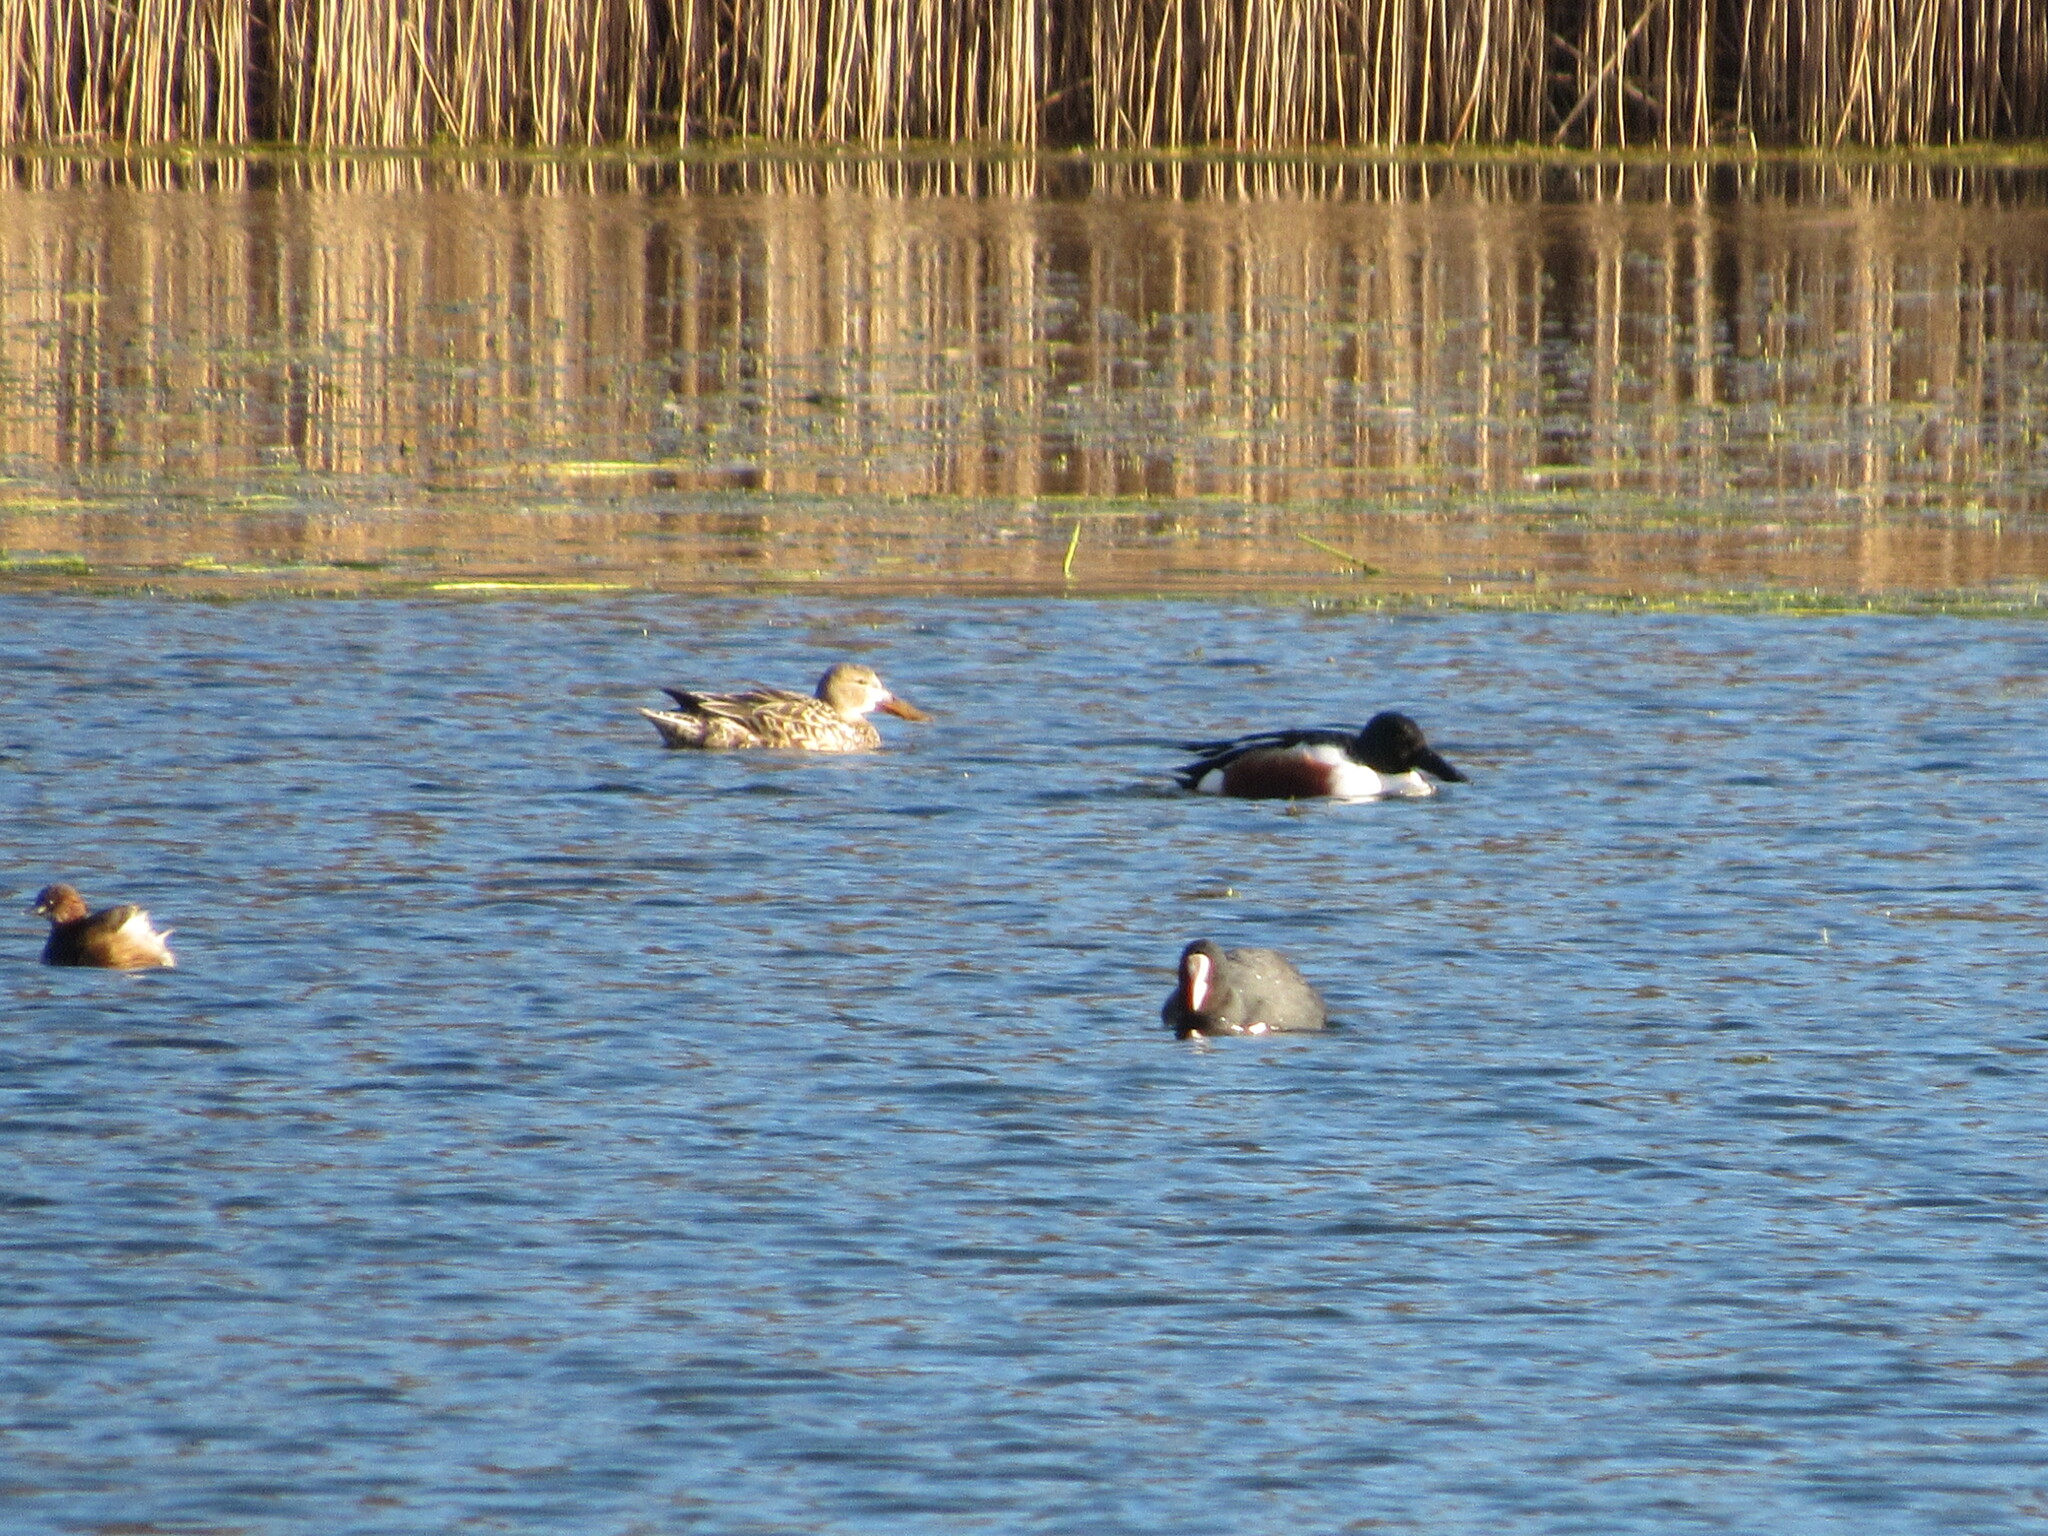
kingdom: Animalia
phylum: Chordata
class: Aves
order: Anseriformes
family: Anatidae
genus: Spatula
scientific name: Spatula clypeata
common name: Northern shoveler
